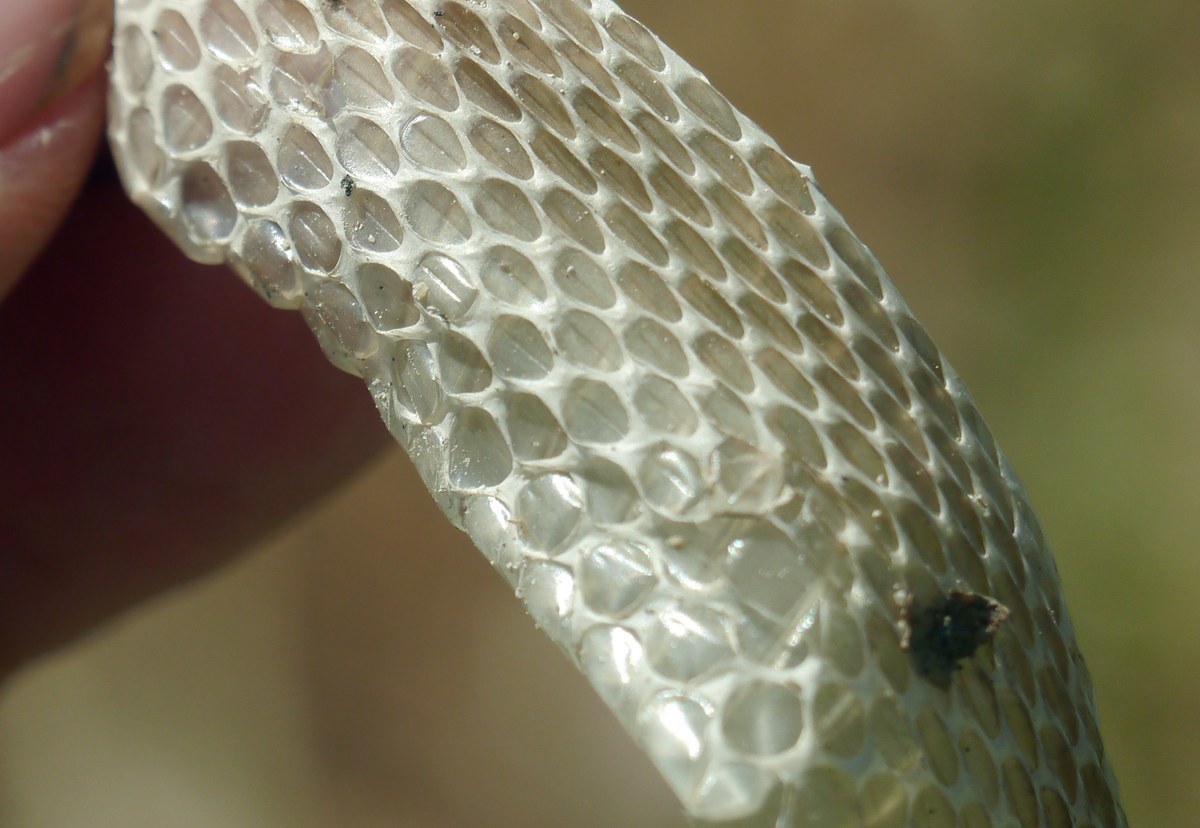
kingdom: Animalia
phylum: Chordata
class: Squamata
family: Colubridae
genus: Natrix
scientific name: Natrix tessellata
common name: Dice snake
